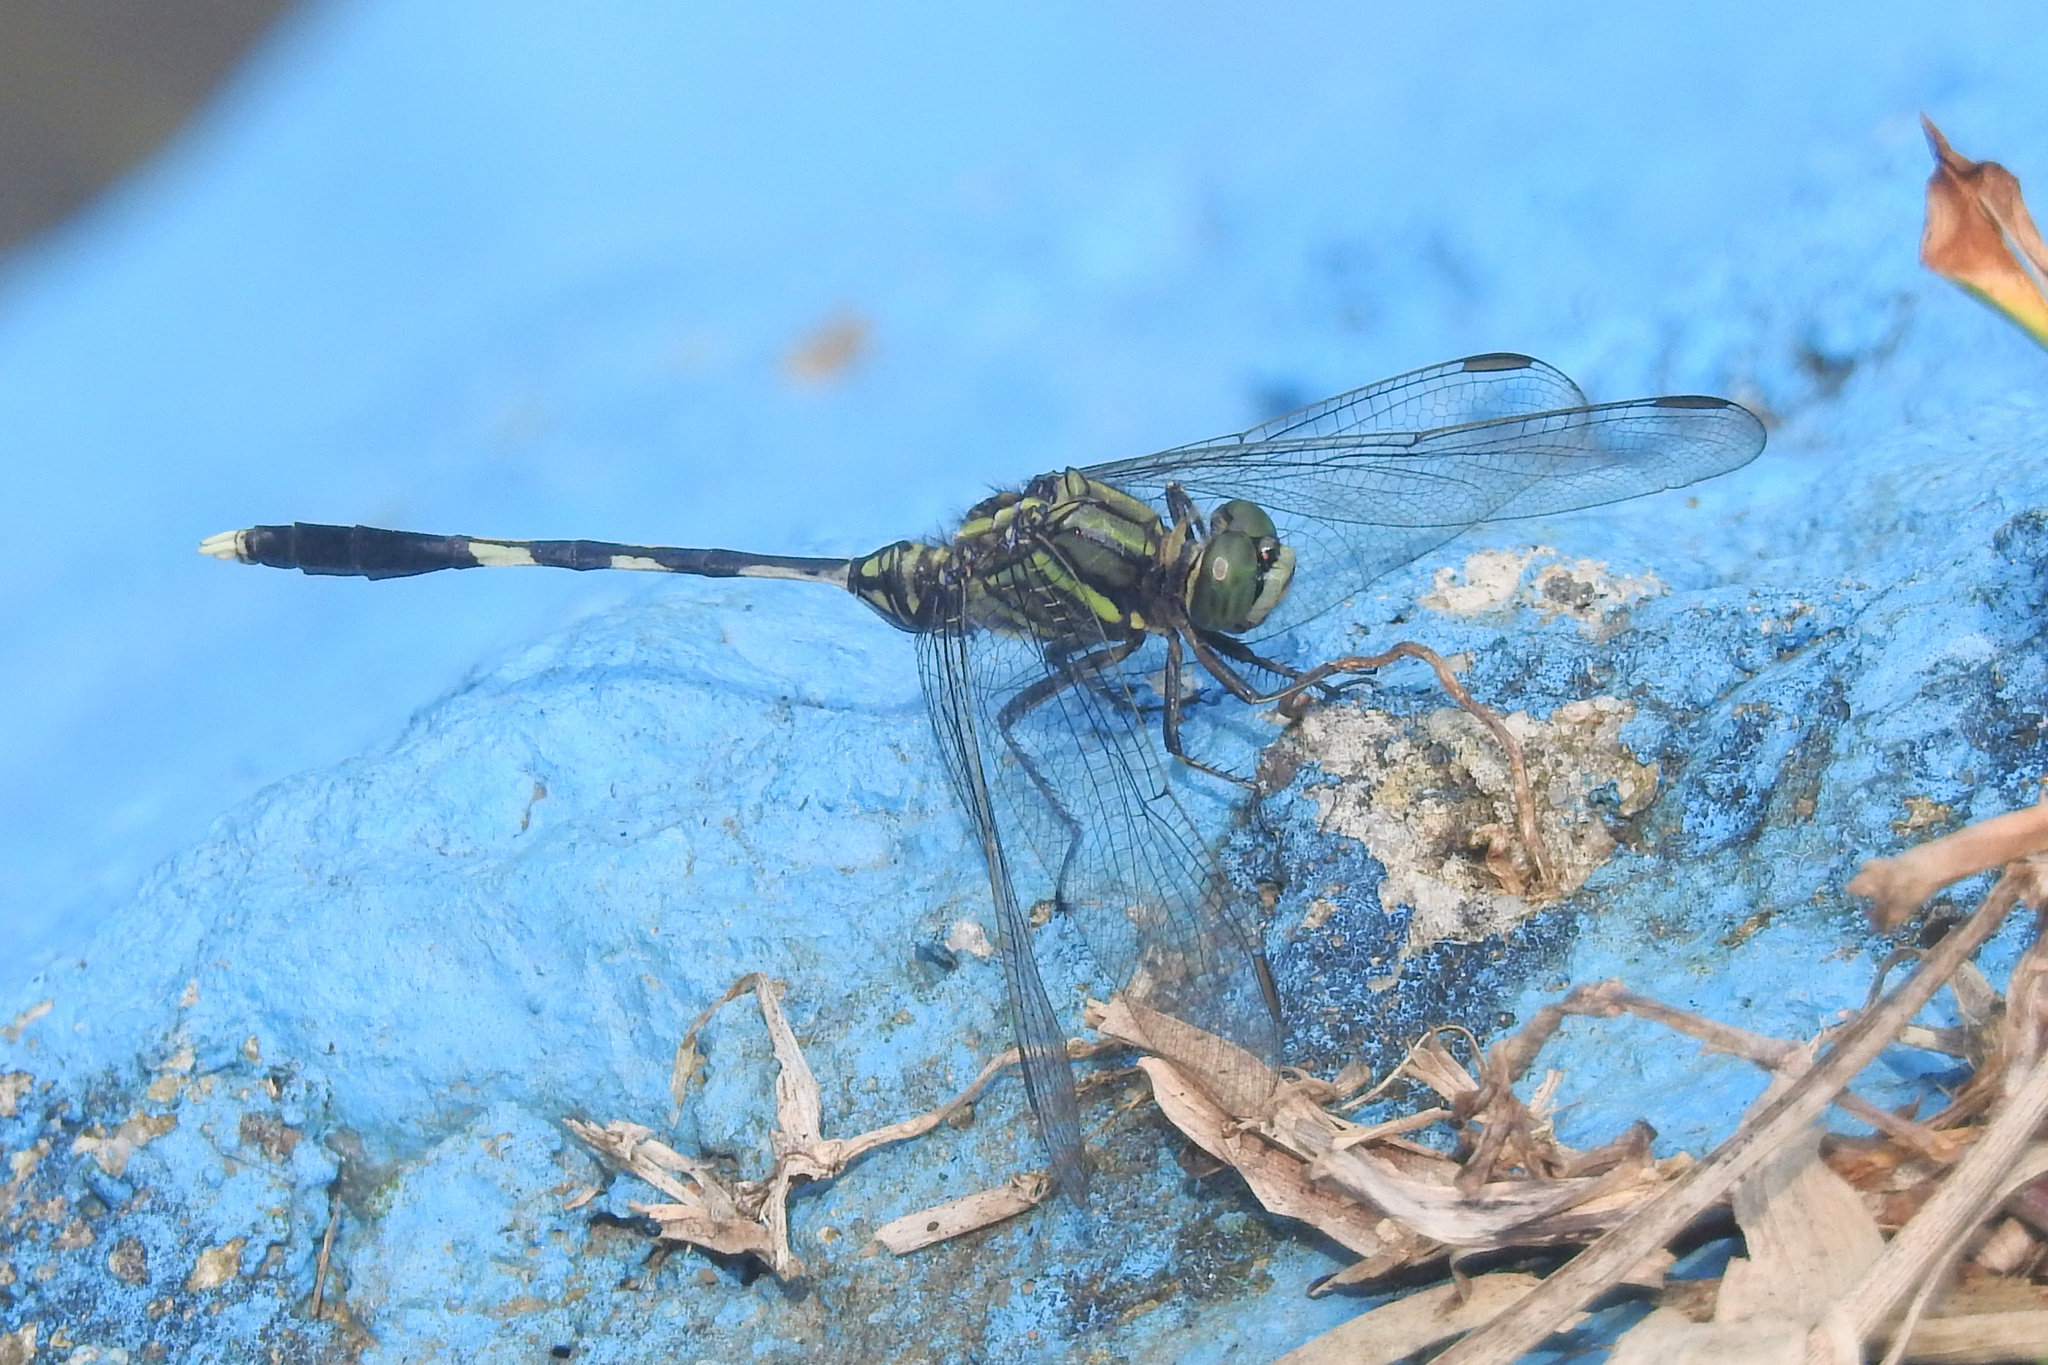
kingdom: Animalia
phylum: Arthropoda
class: Insecta
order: Odonata
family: Libellulidae
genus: Orthetrum
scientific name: Orthetrum sabina
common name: Slender skimmer
